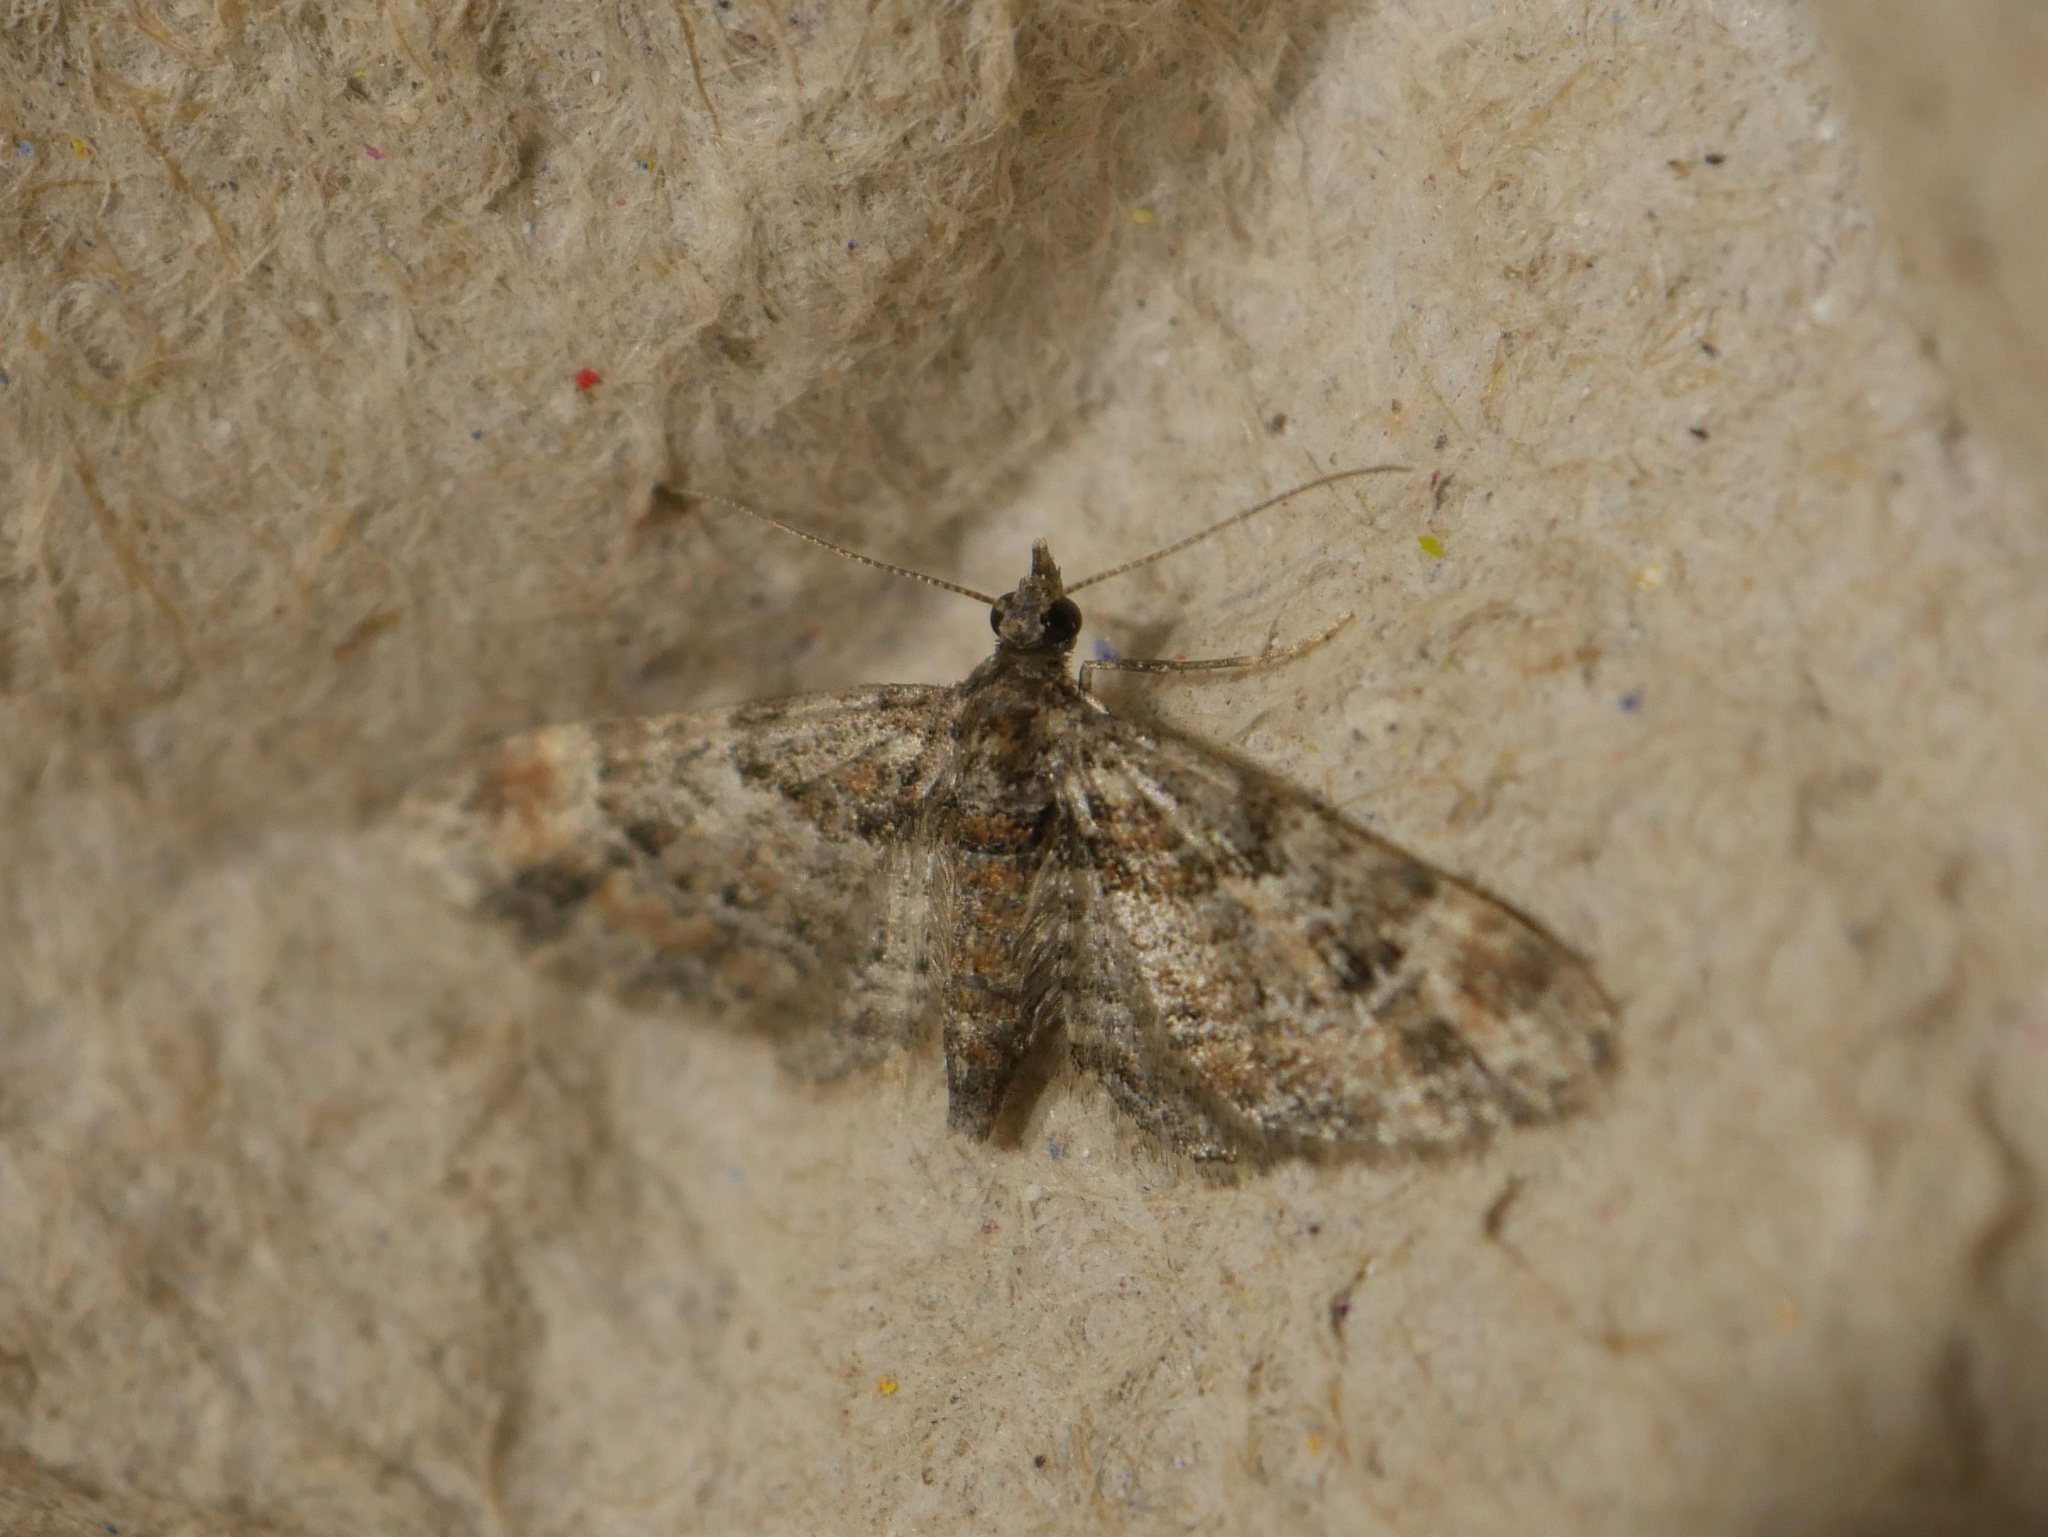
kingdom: Animalia
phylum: Arthropoda
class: Insecta
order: Lepidoptera
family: Geometridae
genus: Gymnoscelis
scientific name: Gymnoscelis rufifasciata
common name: Double-striped pug
